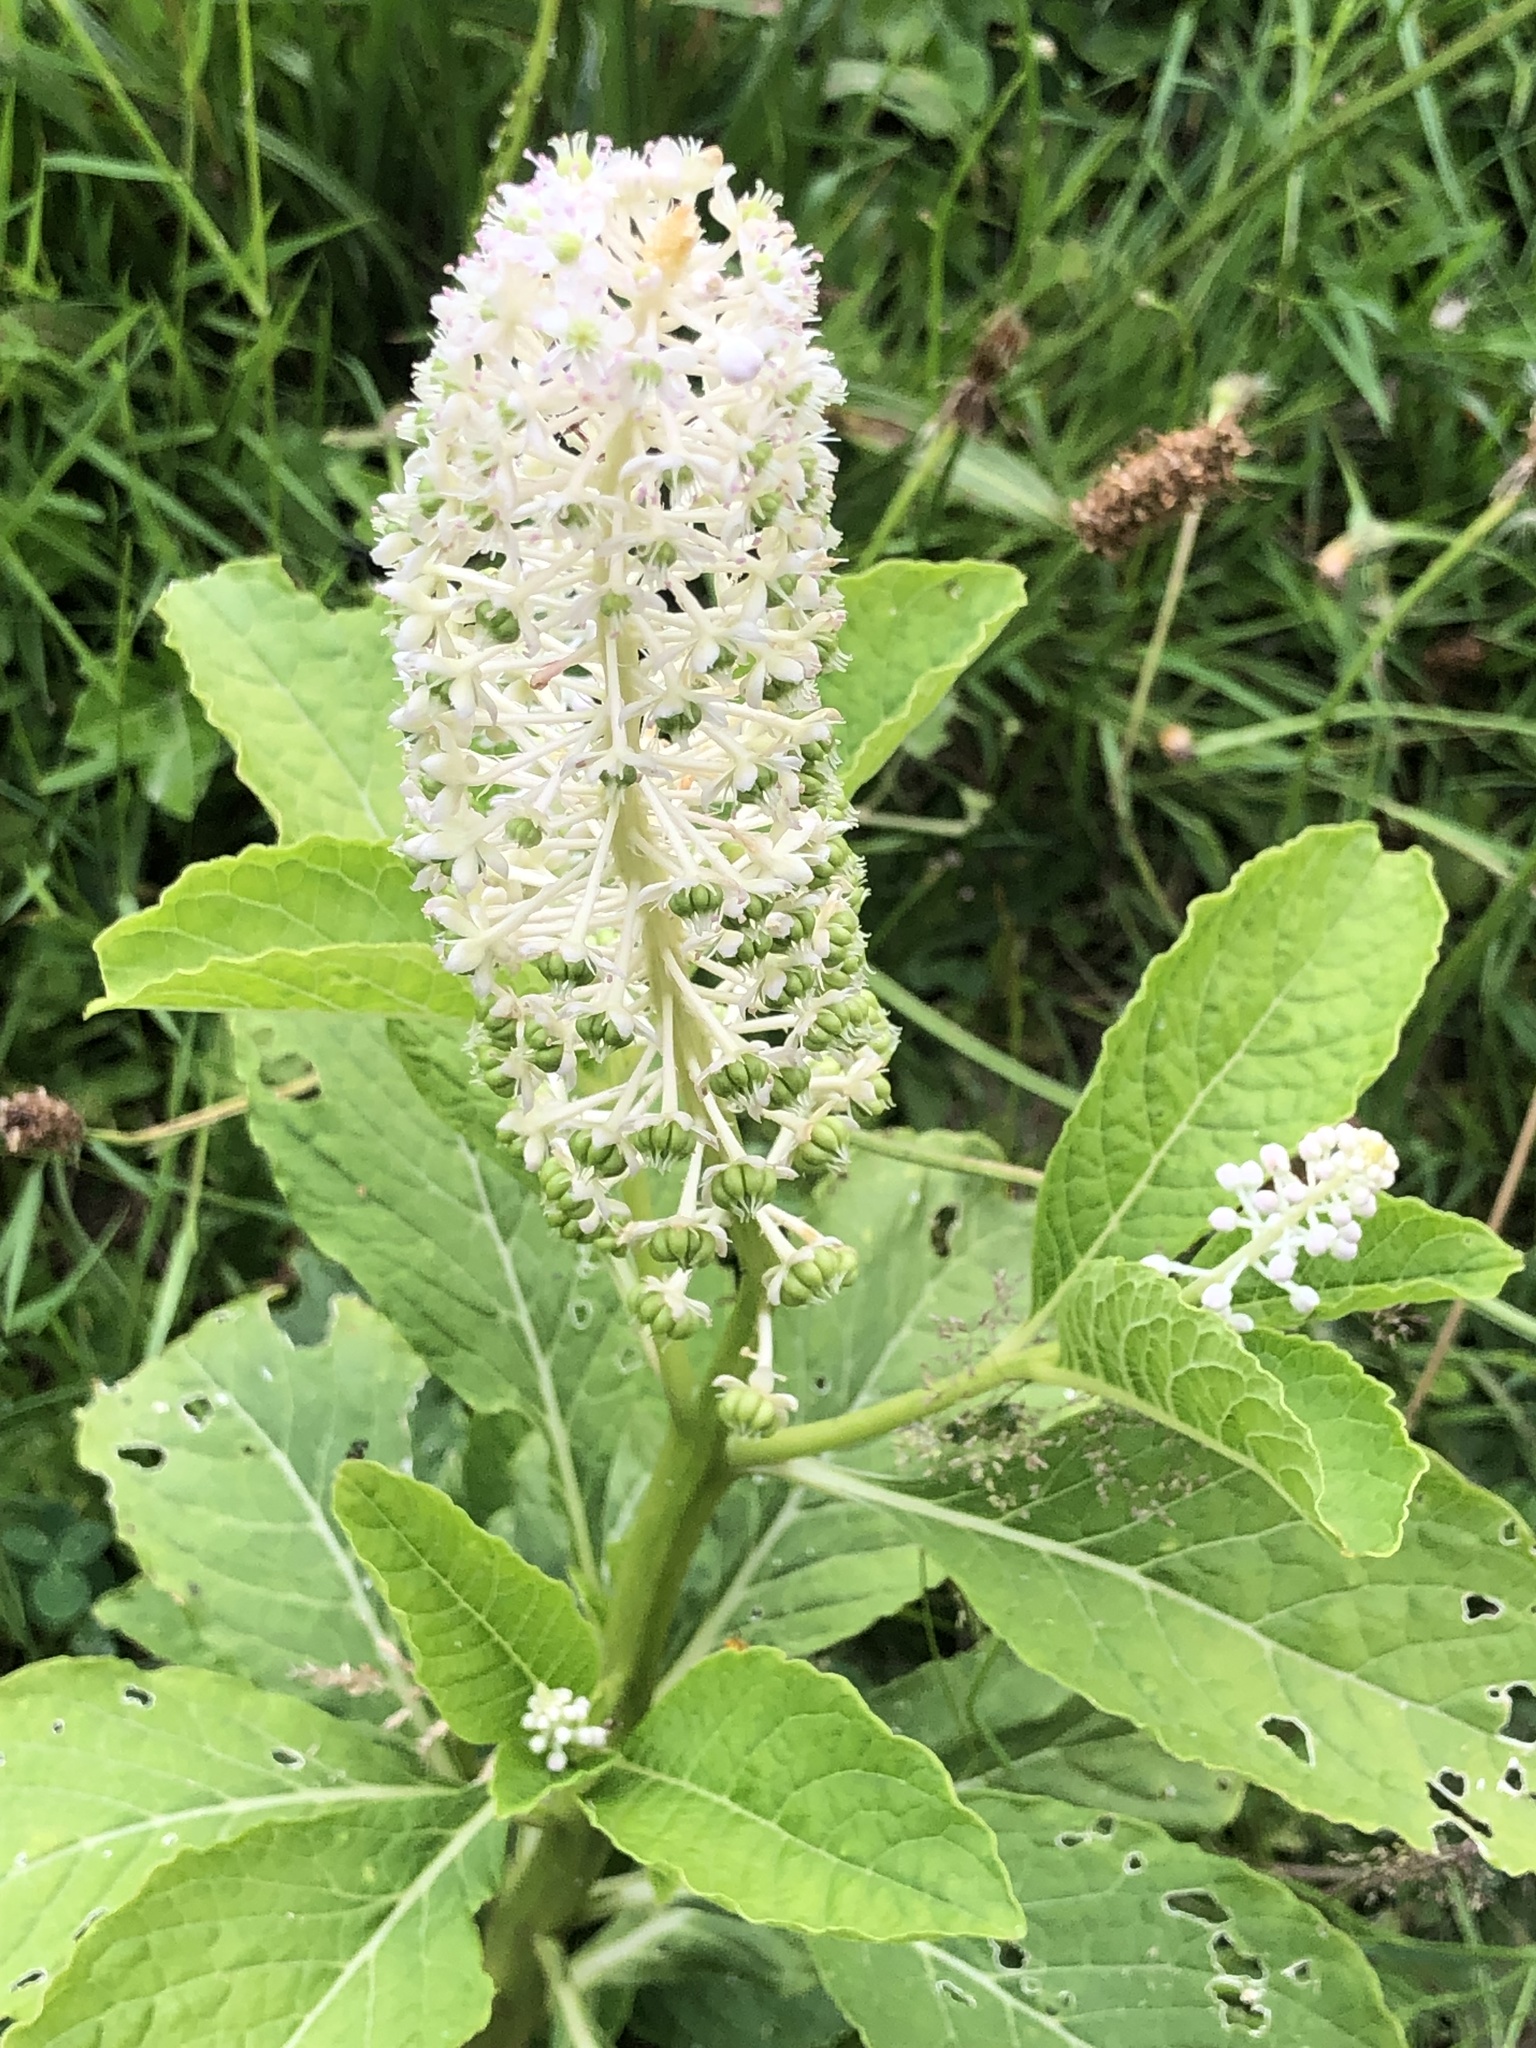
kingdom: Plantae
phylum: Tracheophyta
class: Magnoliopsida
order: Caryophyllales
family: Phytolaccaceae
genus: Phytolacca
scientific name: Phytolacca acinosa
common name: Indian pokeweed
